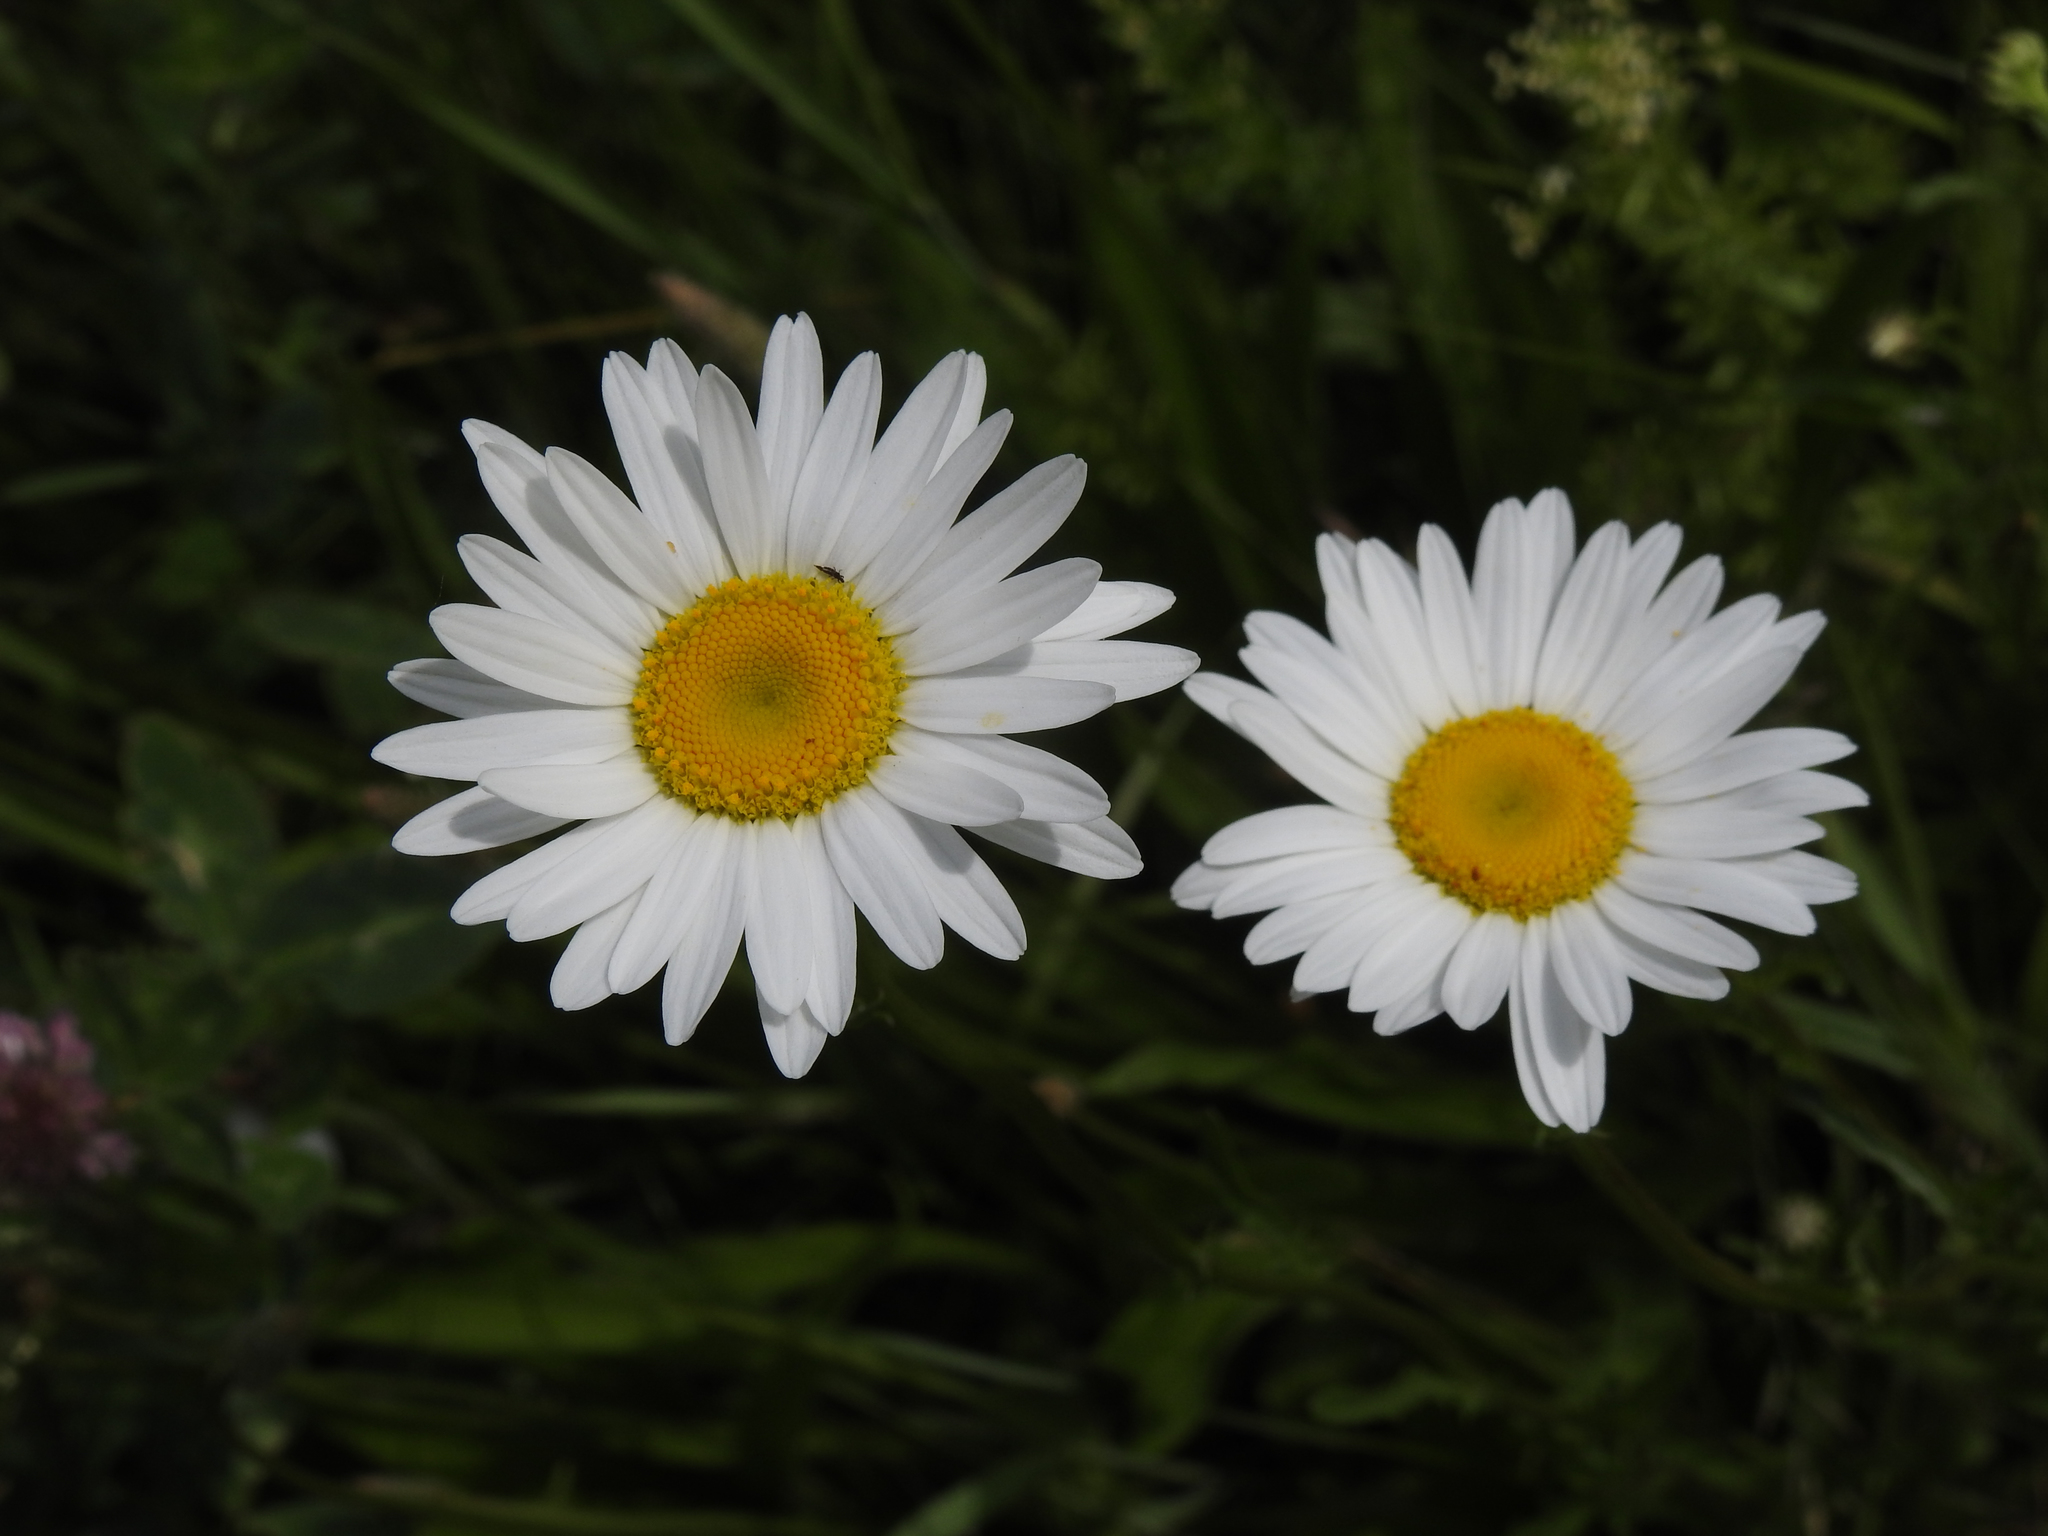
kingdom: Plantae
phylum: Tracheophyta
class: Magnoliopsida
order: Asterales
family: Asteraceae
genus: Leucanthemum
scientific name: Leucanthemum
